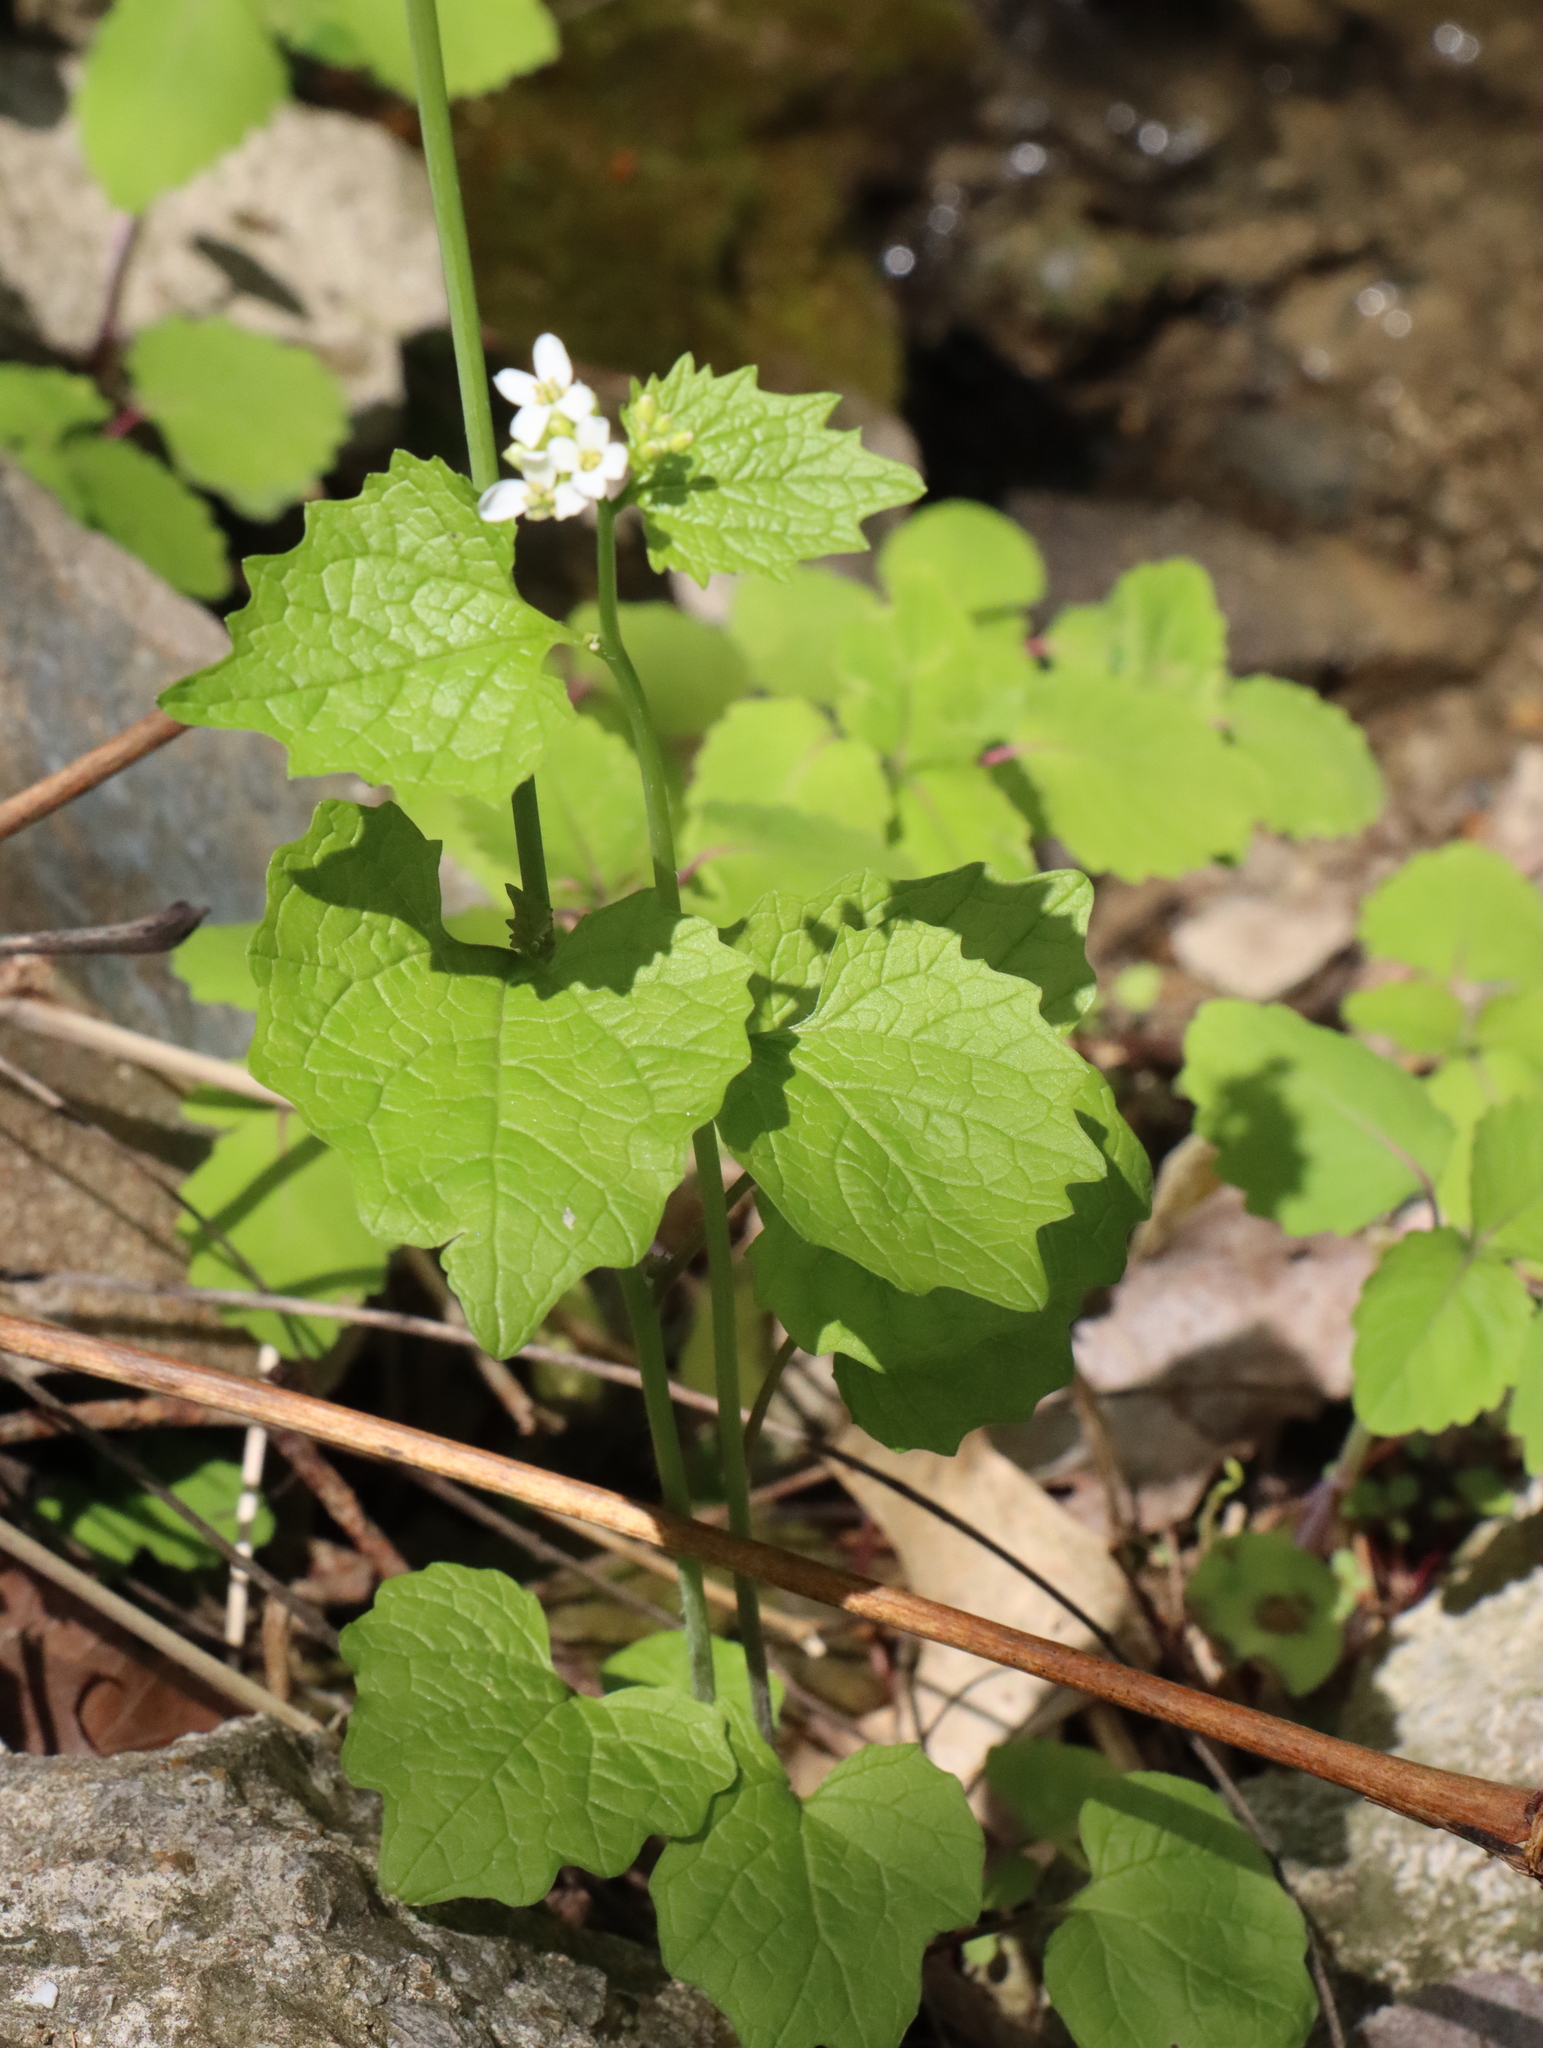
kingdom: Plantae
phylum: Tracheophyta
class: Magnoliopsida
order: Brassicales
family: Brassicaceae
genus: Alliaria
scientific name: Alliaria petiolata
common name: Garlic mustard
